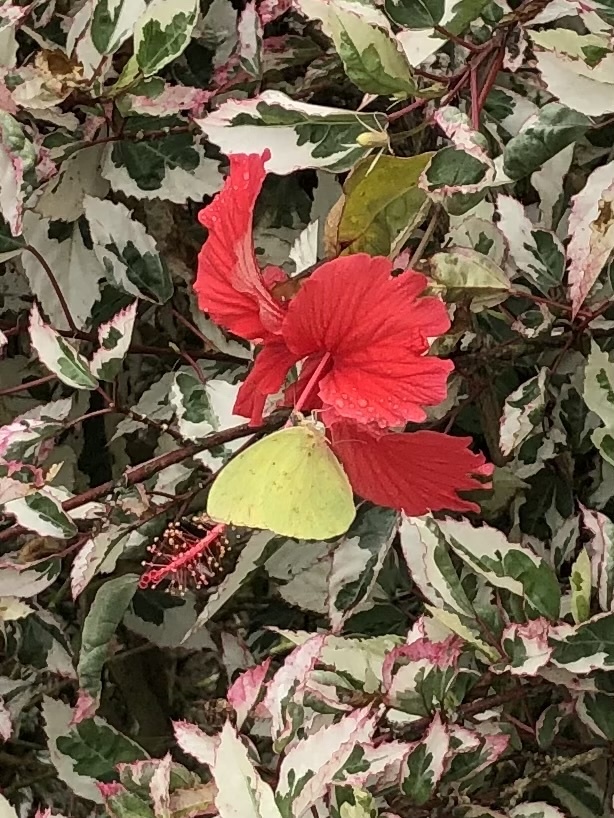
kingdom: Animalia
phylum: Arthropoda
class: Insecta
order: Lepidoptera
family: Pieridae
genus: Phoebis
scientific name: Phoebis sennae
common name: Cloudless sulphur
